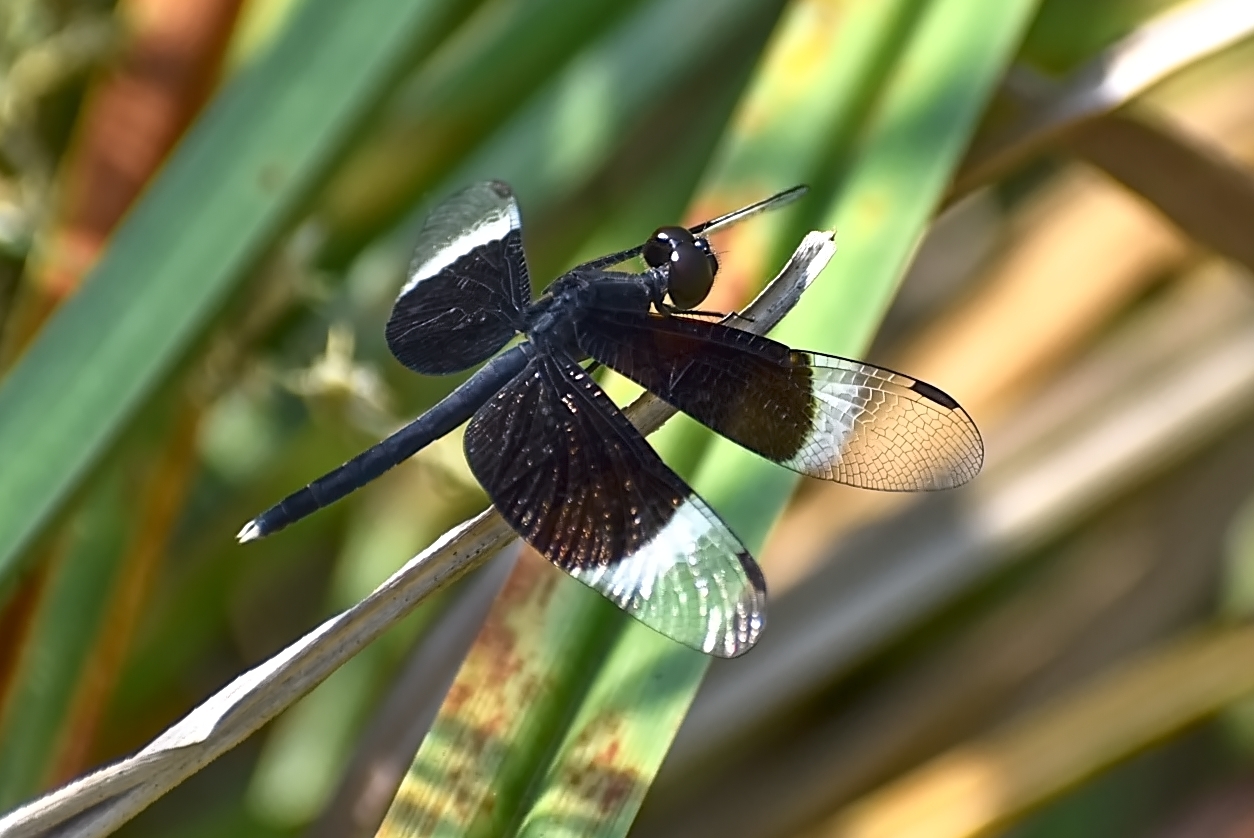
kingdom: Animalia
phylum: Arthropoda
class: Insecta
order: Odonata
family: Libellulidae
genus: Neurothemis
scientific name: Neurothemis tullia
